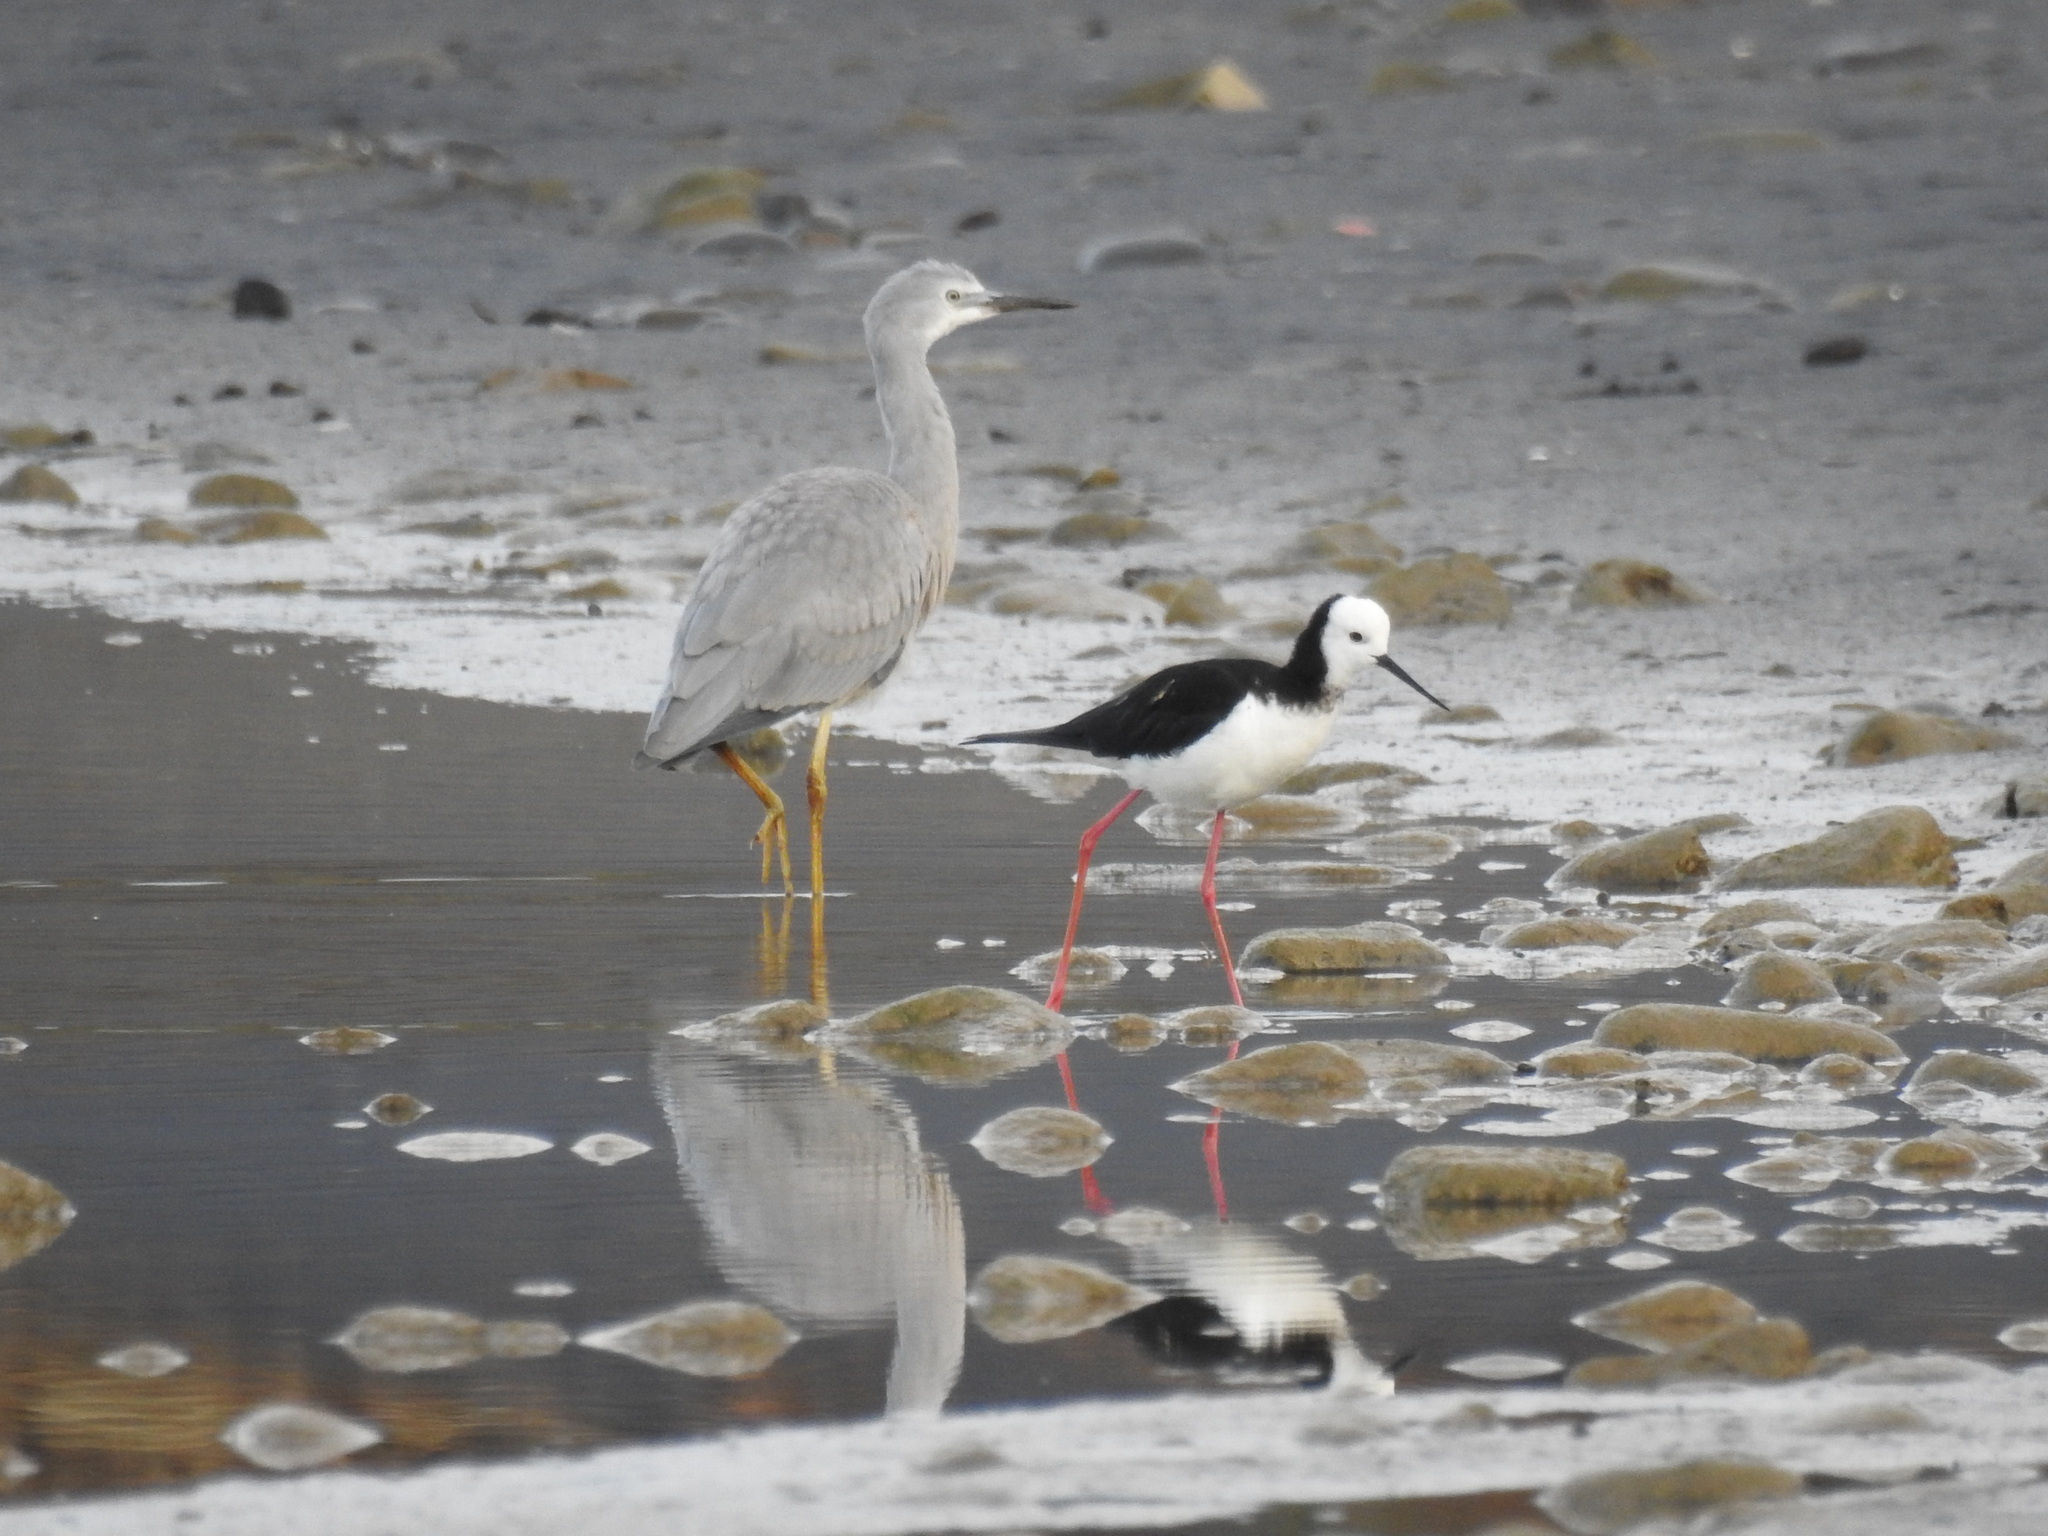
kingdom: Animalia
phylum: Chordata
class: Aves
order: Pelecaniformes
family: Ardeidae
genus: Egretta
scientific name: Egretta novaehollandiae
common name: White-faced heron
